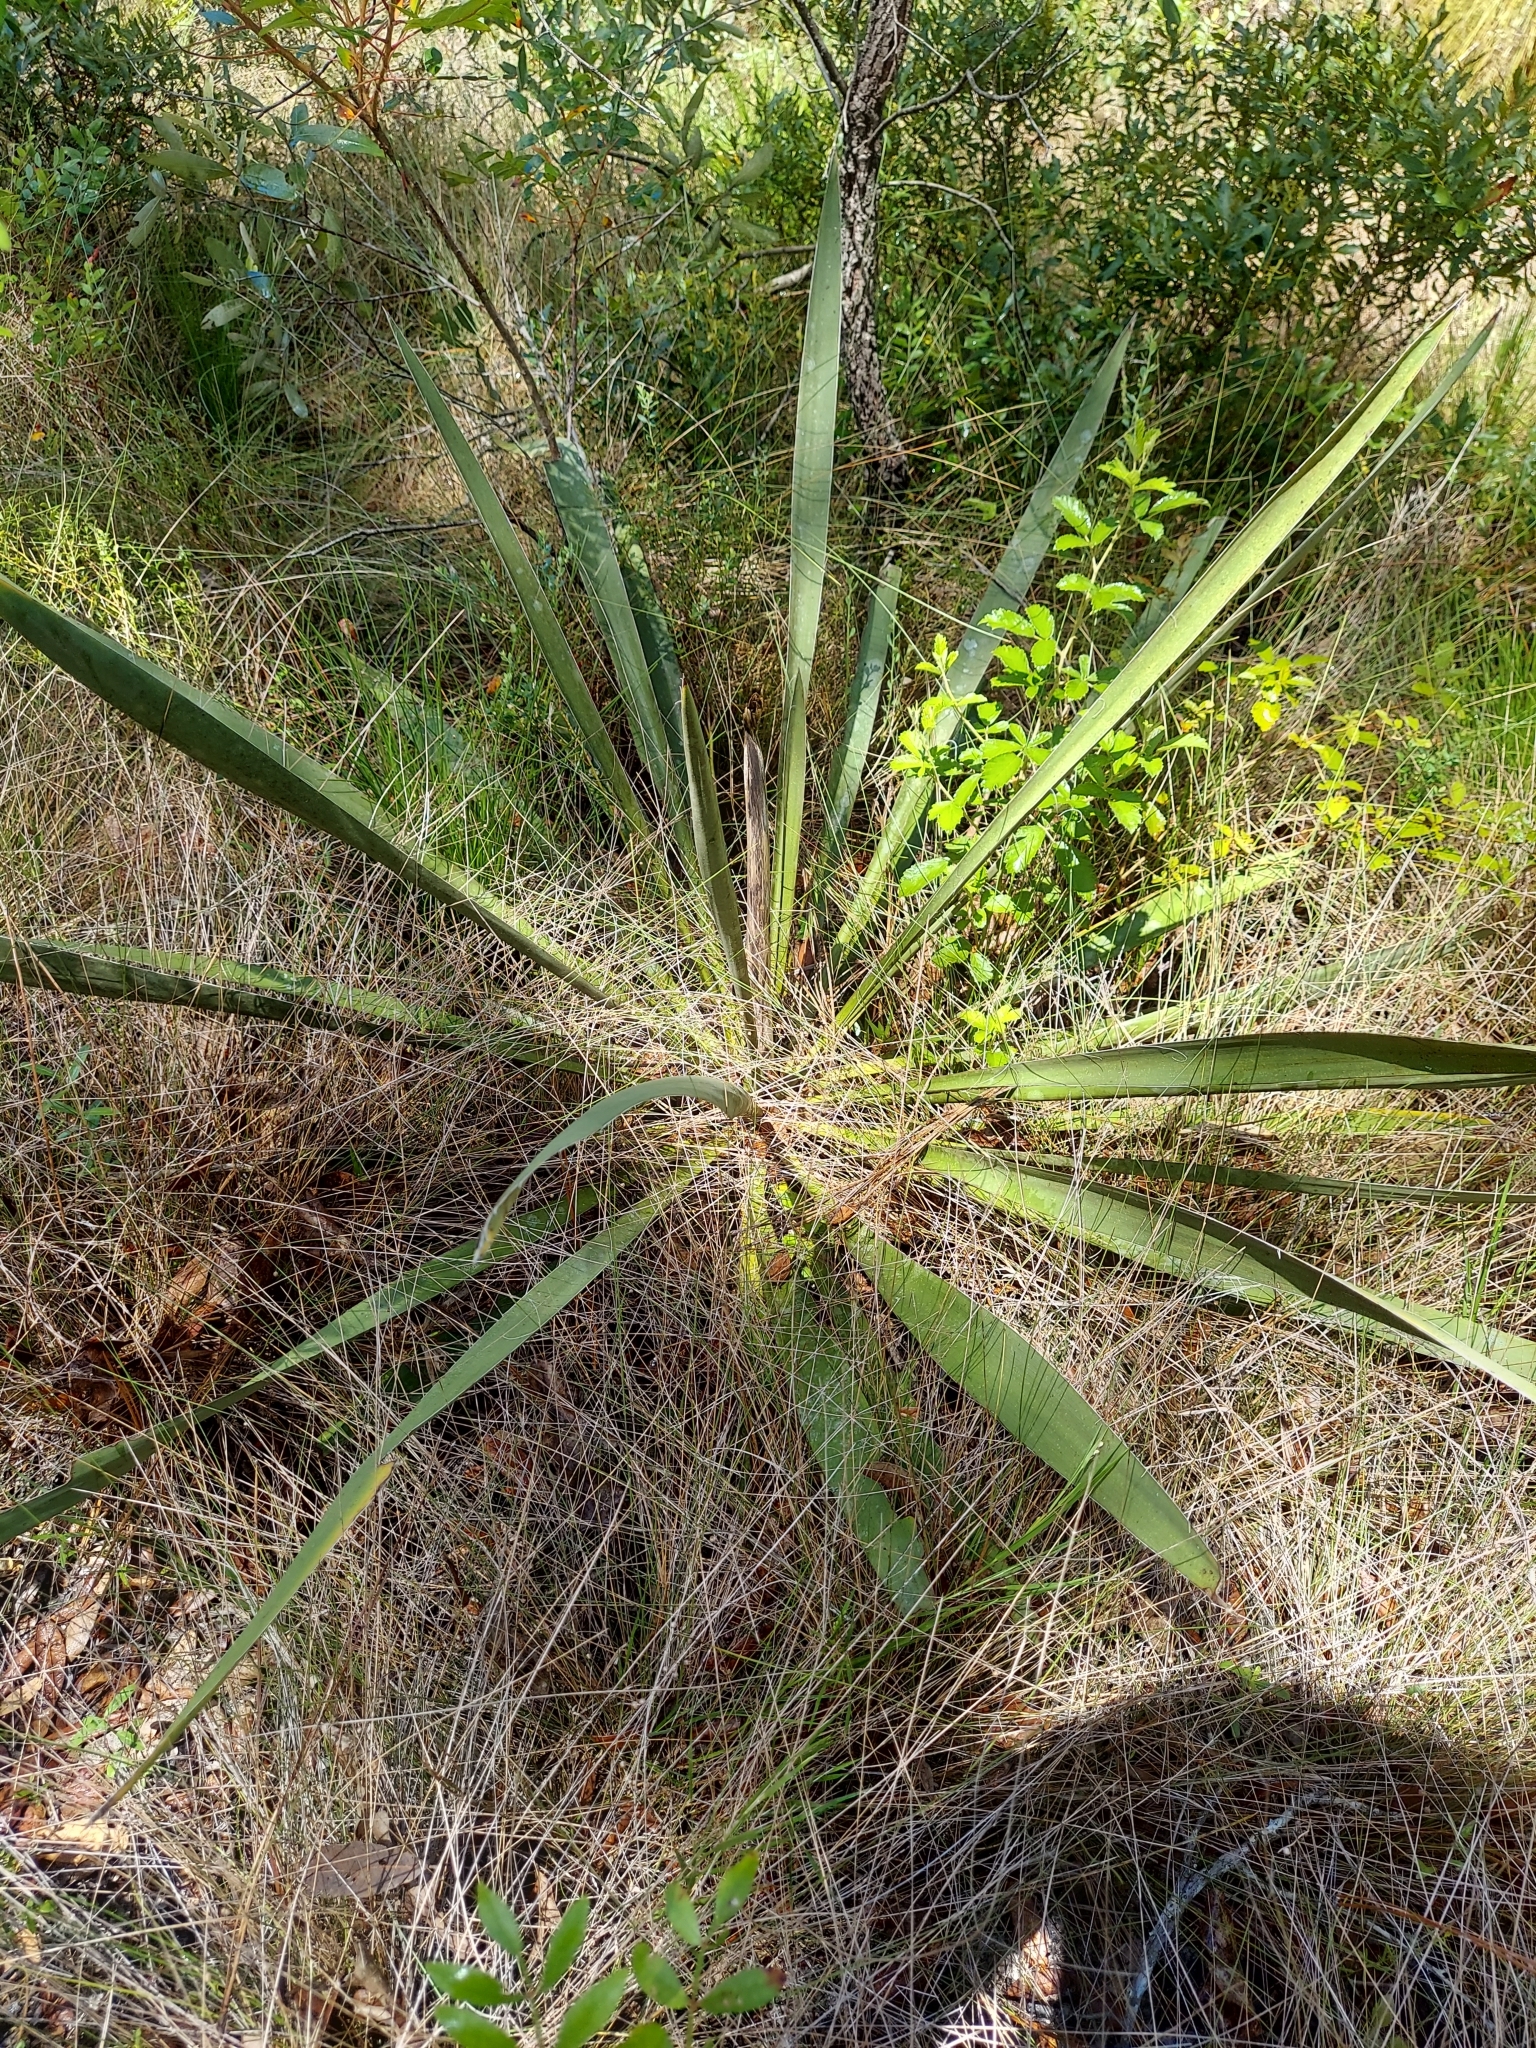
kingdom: Plantae
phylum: Tracheophyta
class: Liliopsida
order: Asparagales
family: Asparagaceae
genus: Yucca
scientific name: Yucca filamentosa
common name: Adam's-needle
